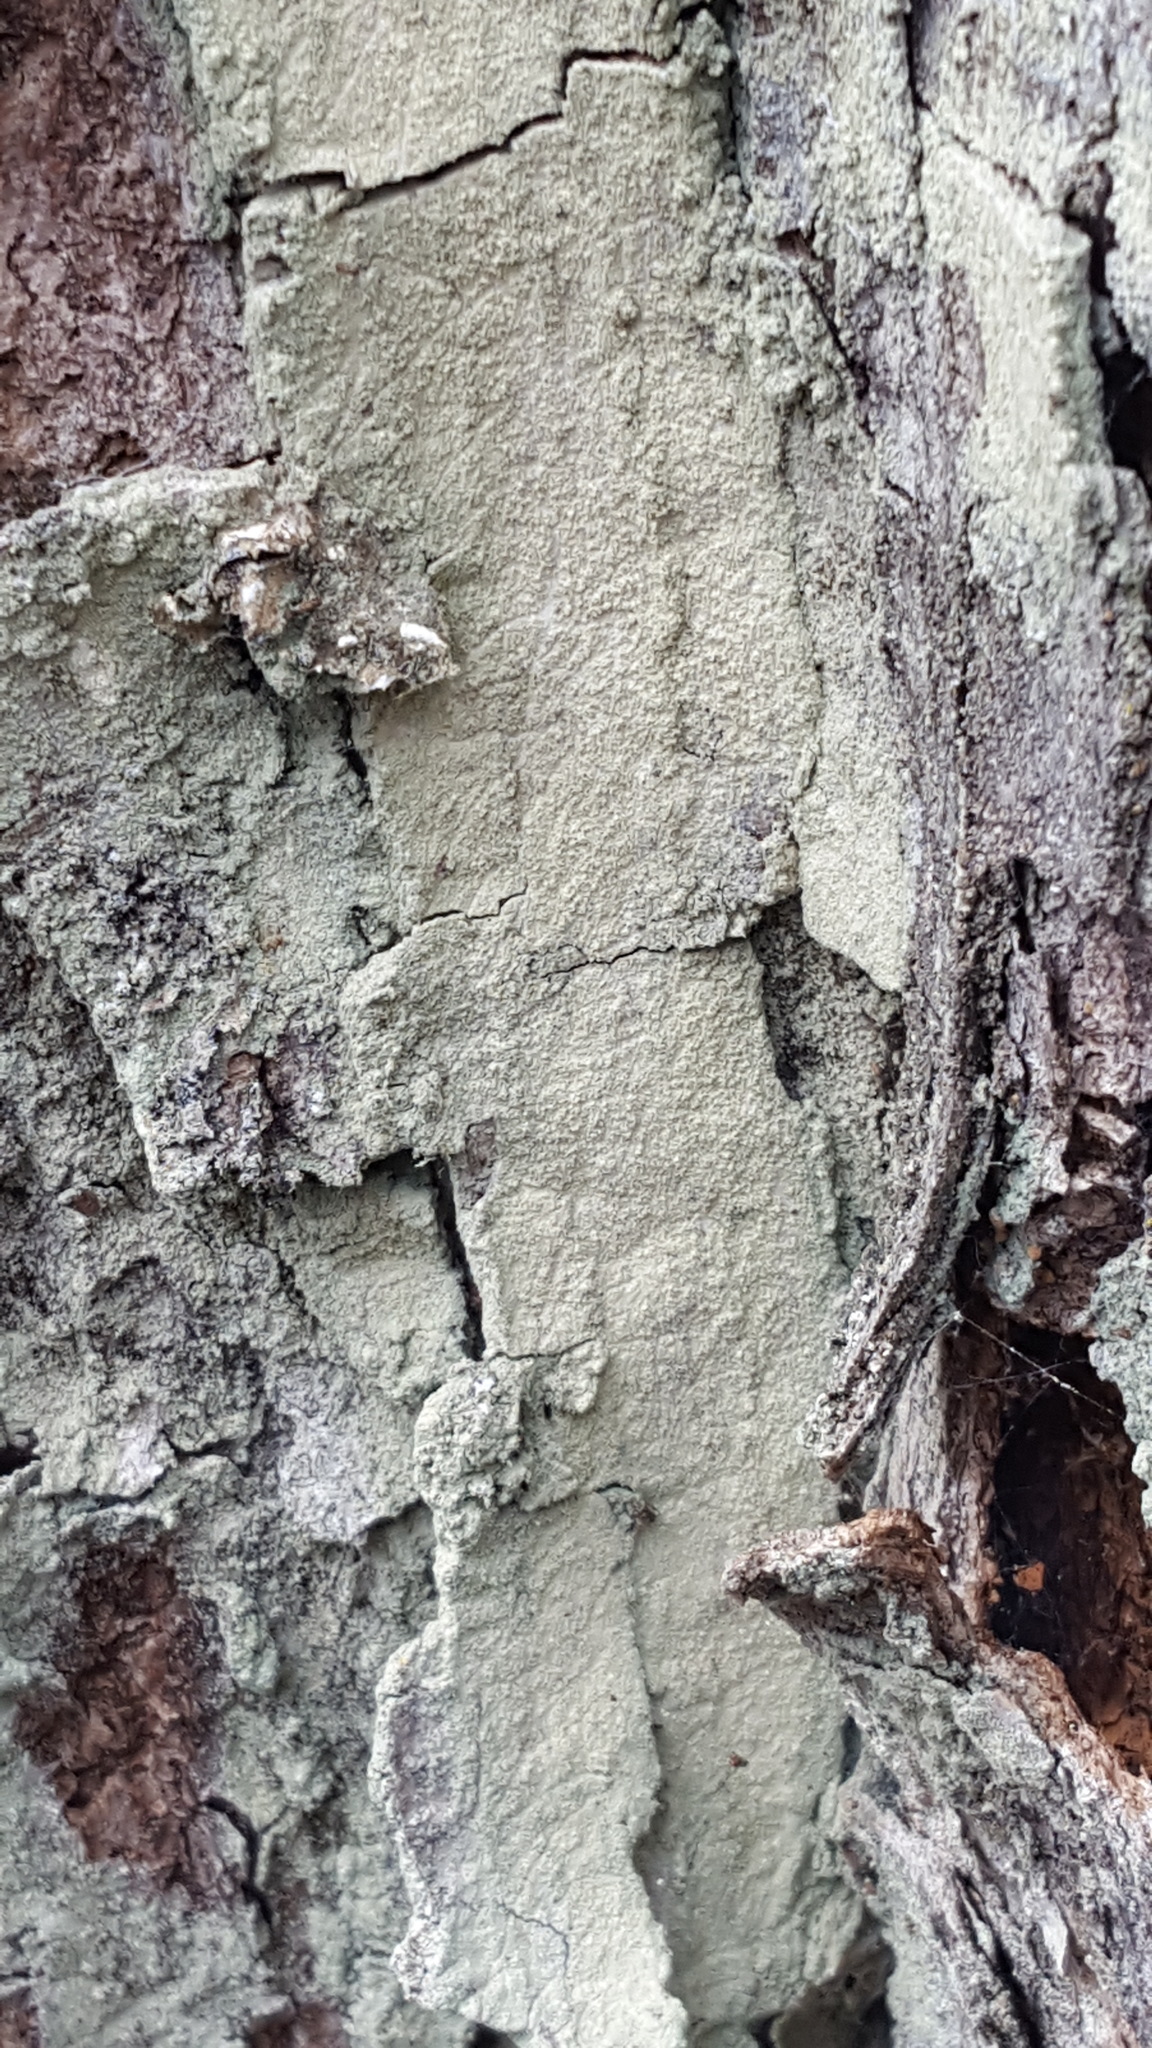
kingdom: Fungi
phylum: Ascomycota
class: Lecanoromycetes
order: Lecanorales
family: Stereocaulaceae
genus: Lepraria
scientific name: Lepraria lobificans
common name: Fluffy dust lichen
